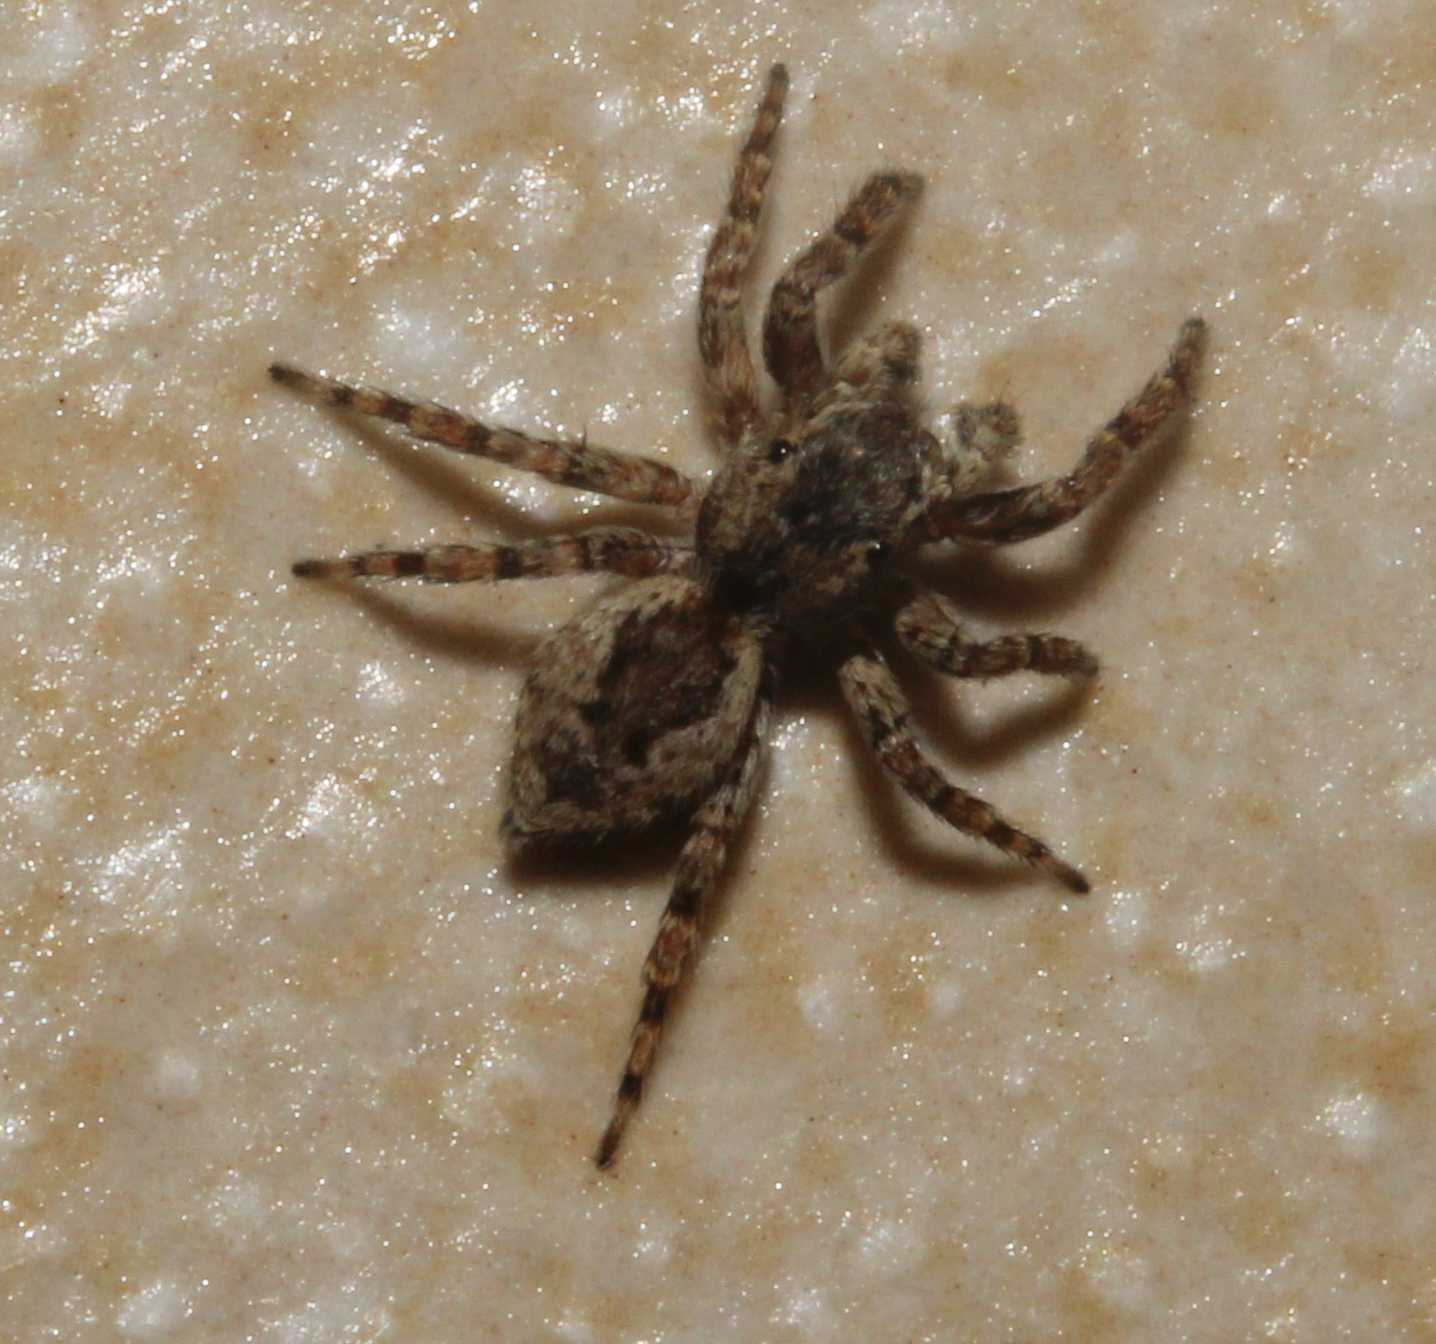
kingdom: Animalia
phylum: Arthropoda
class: Arachnida
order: Araneae
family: Salticidae
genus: Mexigonus
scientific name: Mexigonus
